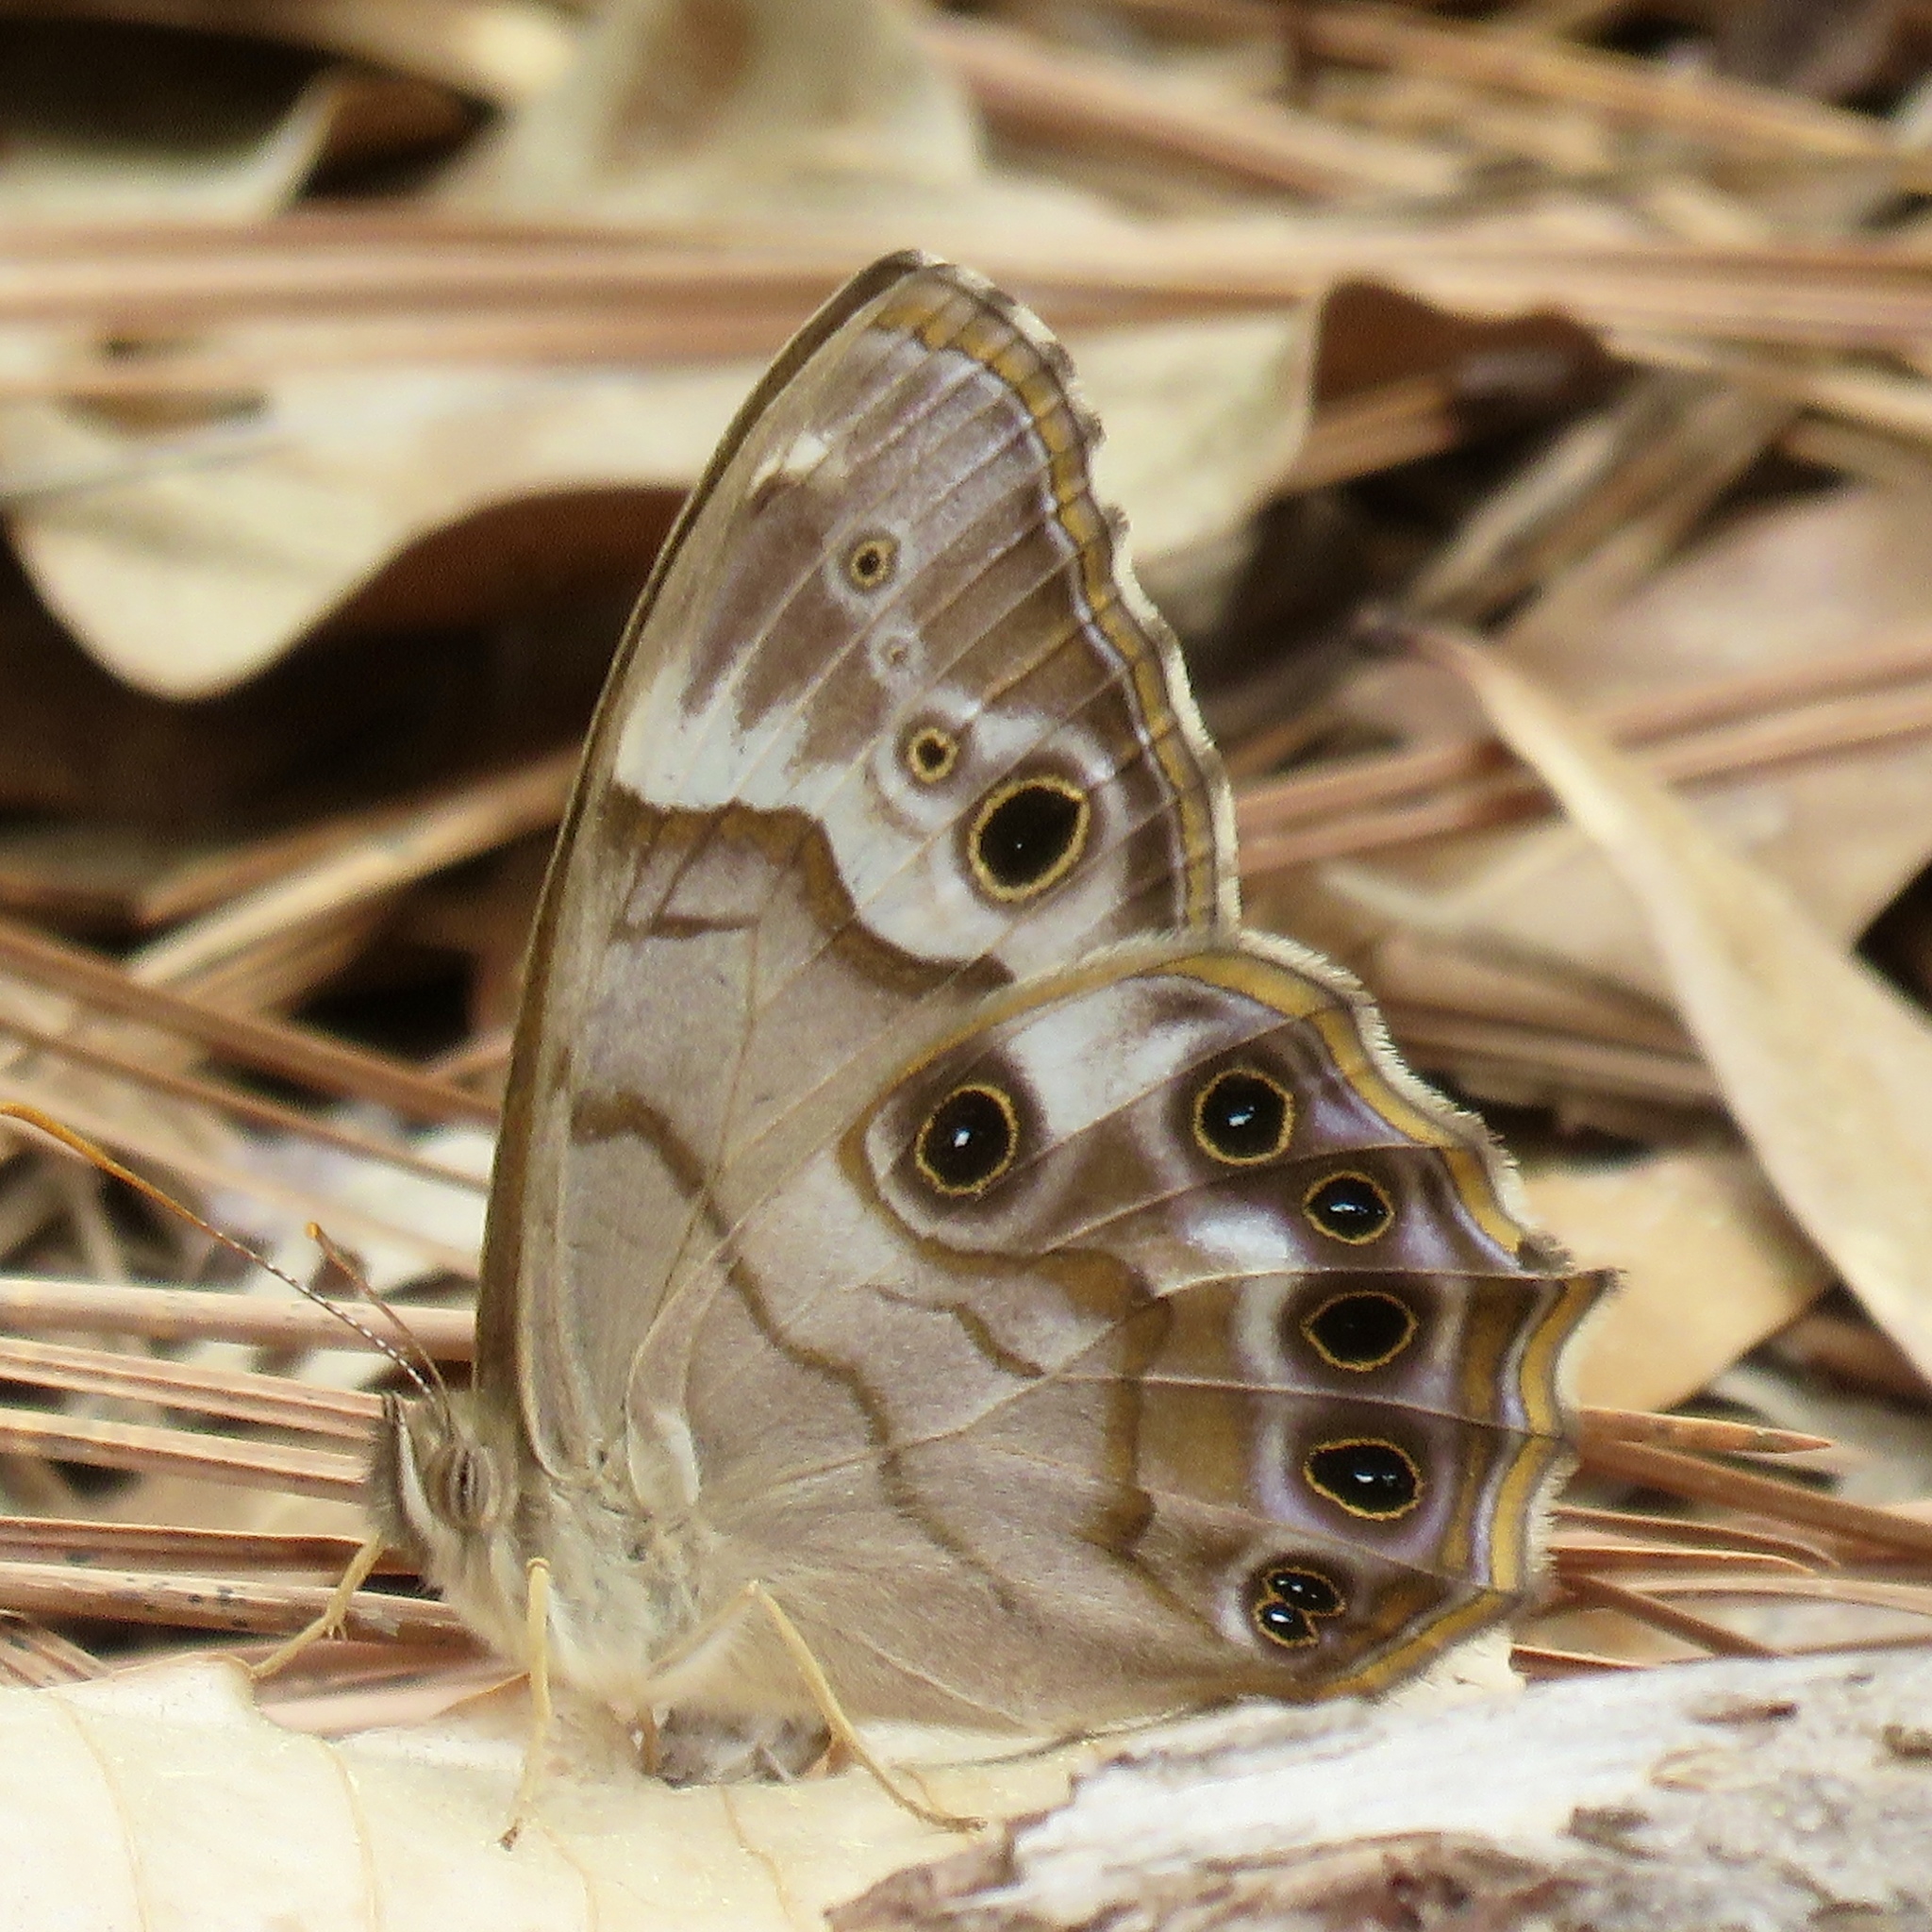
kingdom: Animalia
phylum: Arthropoda
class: Insecta
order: Lepidoptera
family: Nymphalidae
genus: Enodia
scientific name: Enodia portlandia
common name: Southern pearly-eye
